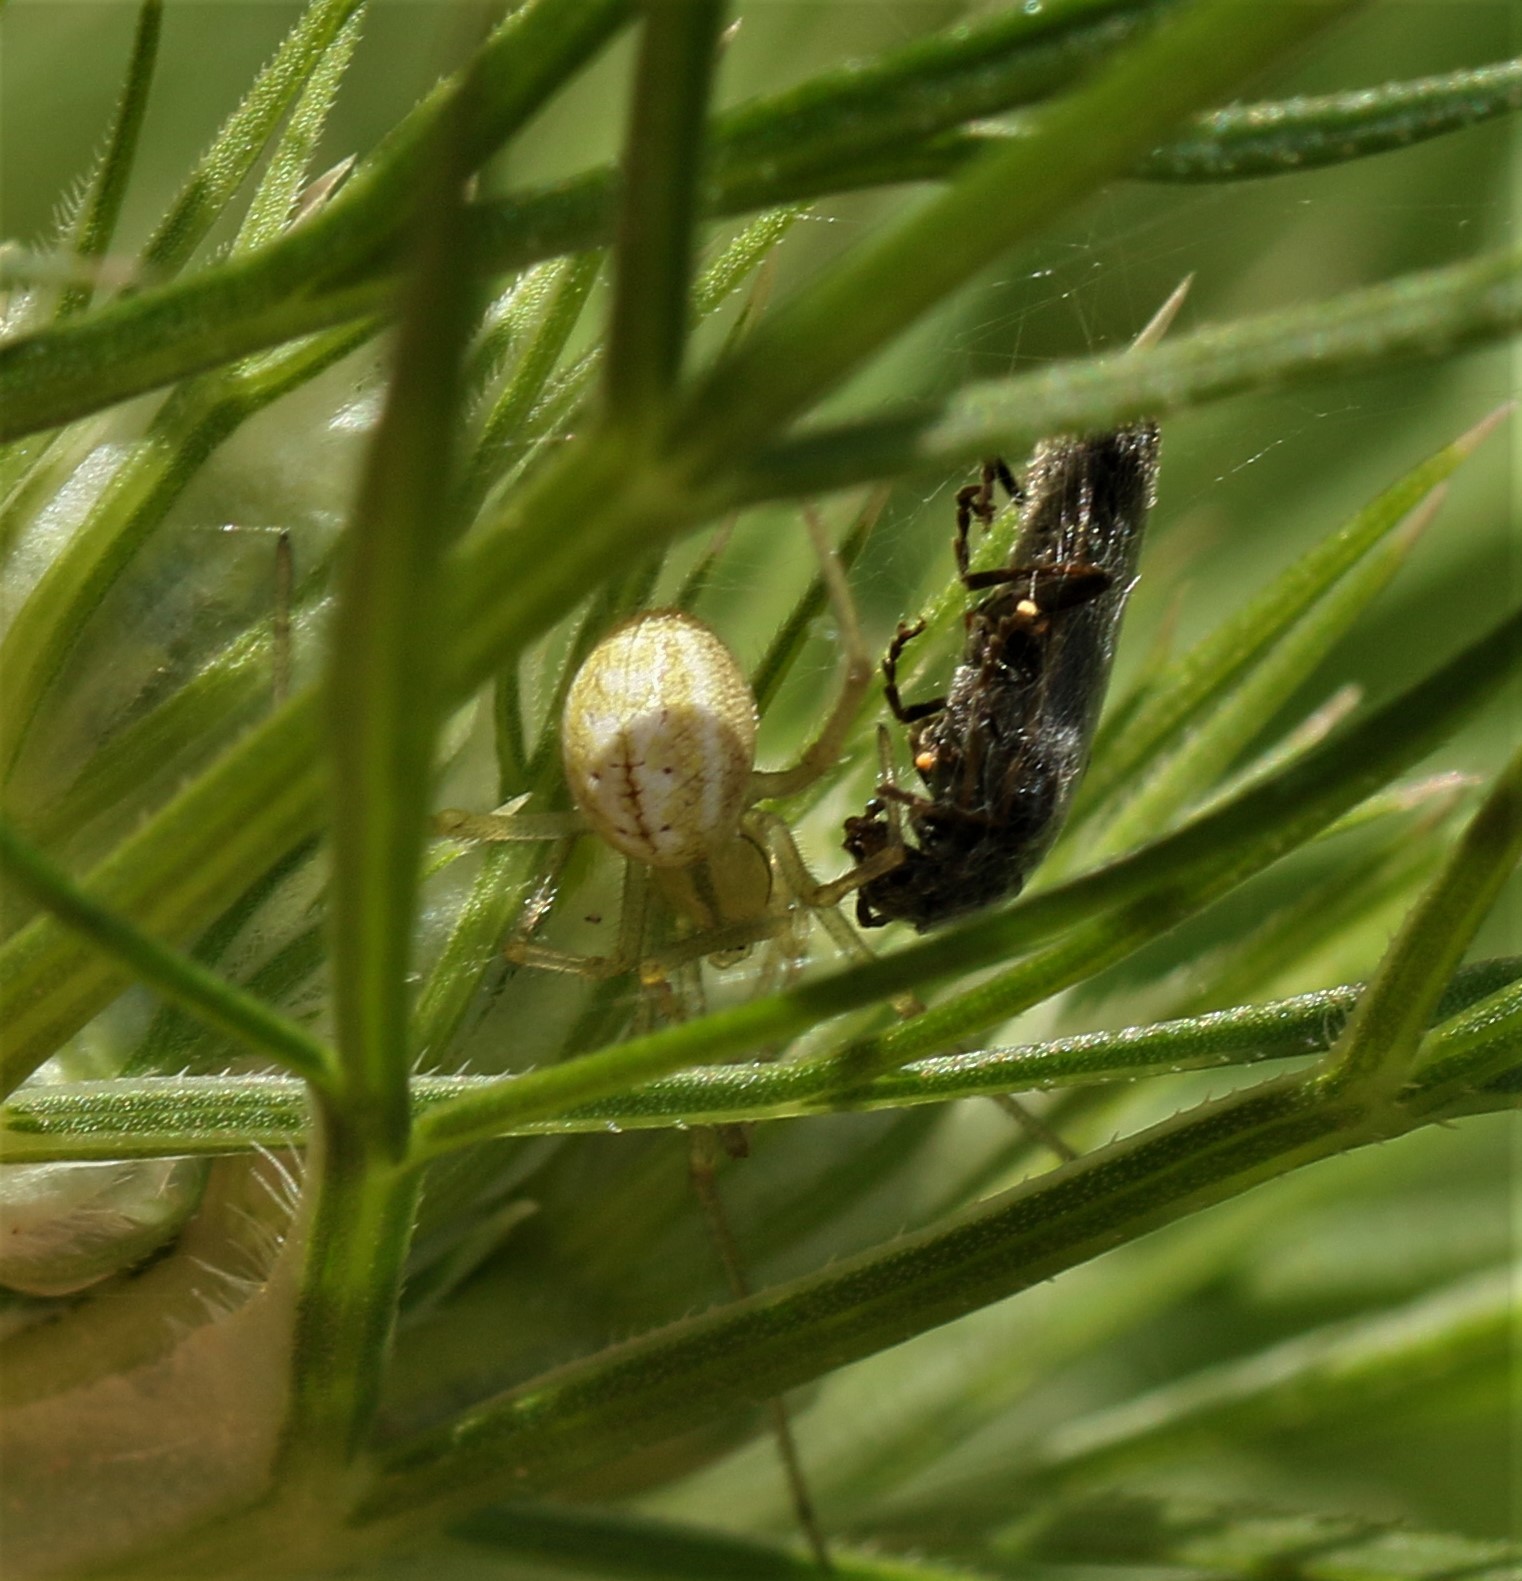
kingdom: Animalia
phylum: Arthropoda
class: Arachnida
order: Araneae
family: Theridiidae
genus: Enoplognatha
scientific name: Enoplognatha ovata
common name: Common candy-striped spider
